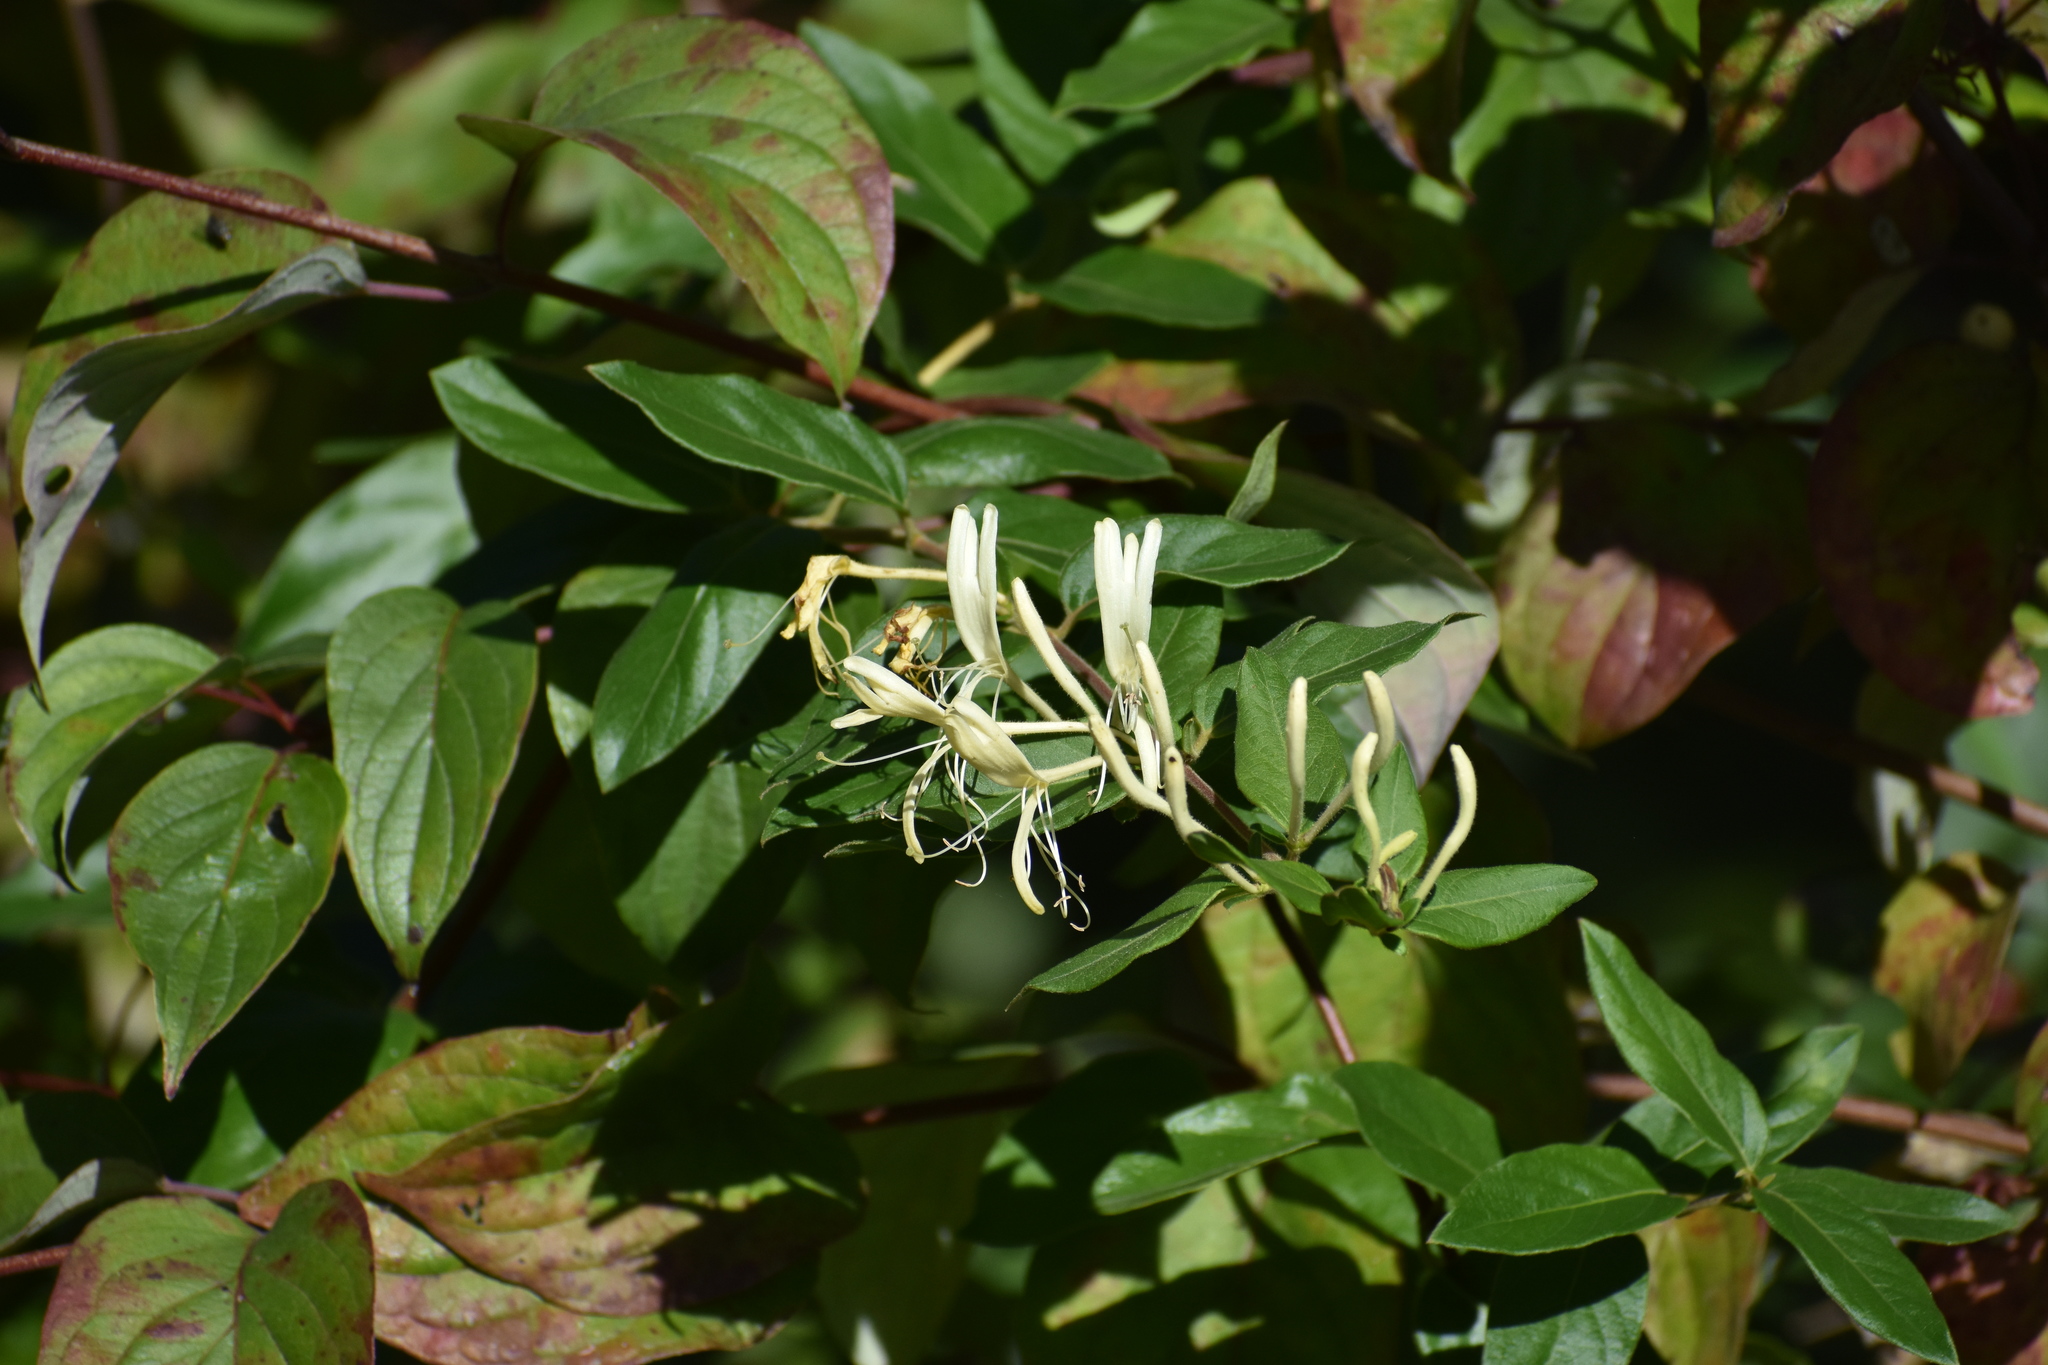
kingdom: Plantae
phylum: Tracheophyta
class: Magnoliopsida
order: Dipsacales
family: Caprifoliaceae
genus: Lonicera
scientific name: Lonicera japonica
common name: Japanese honeysuckle
